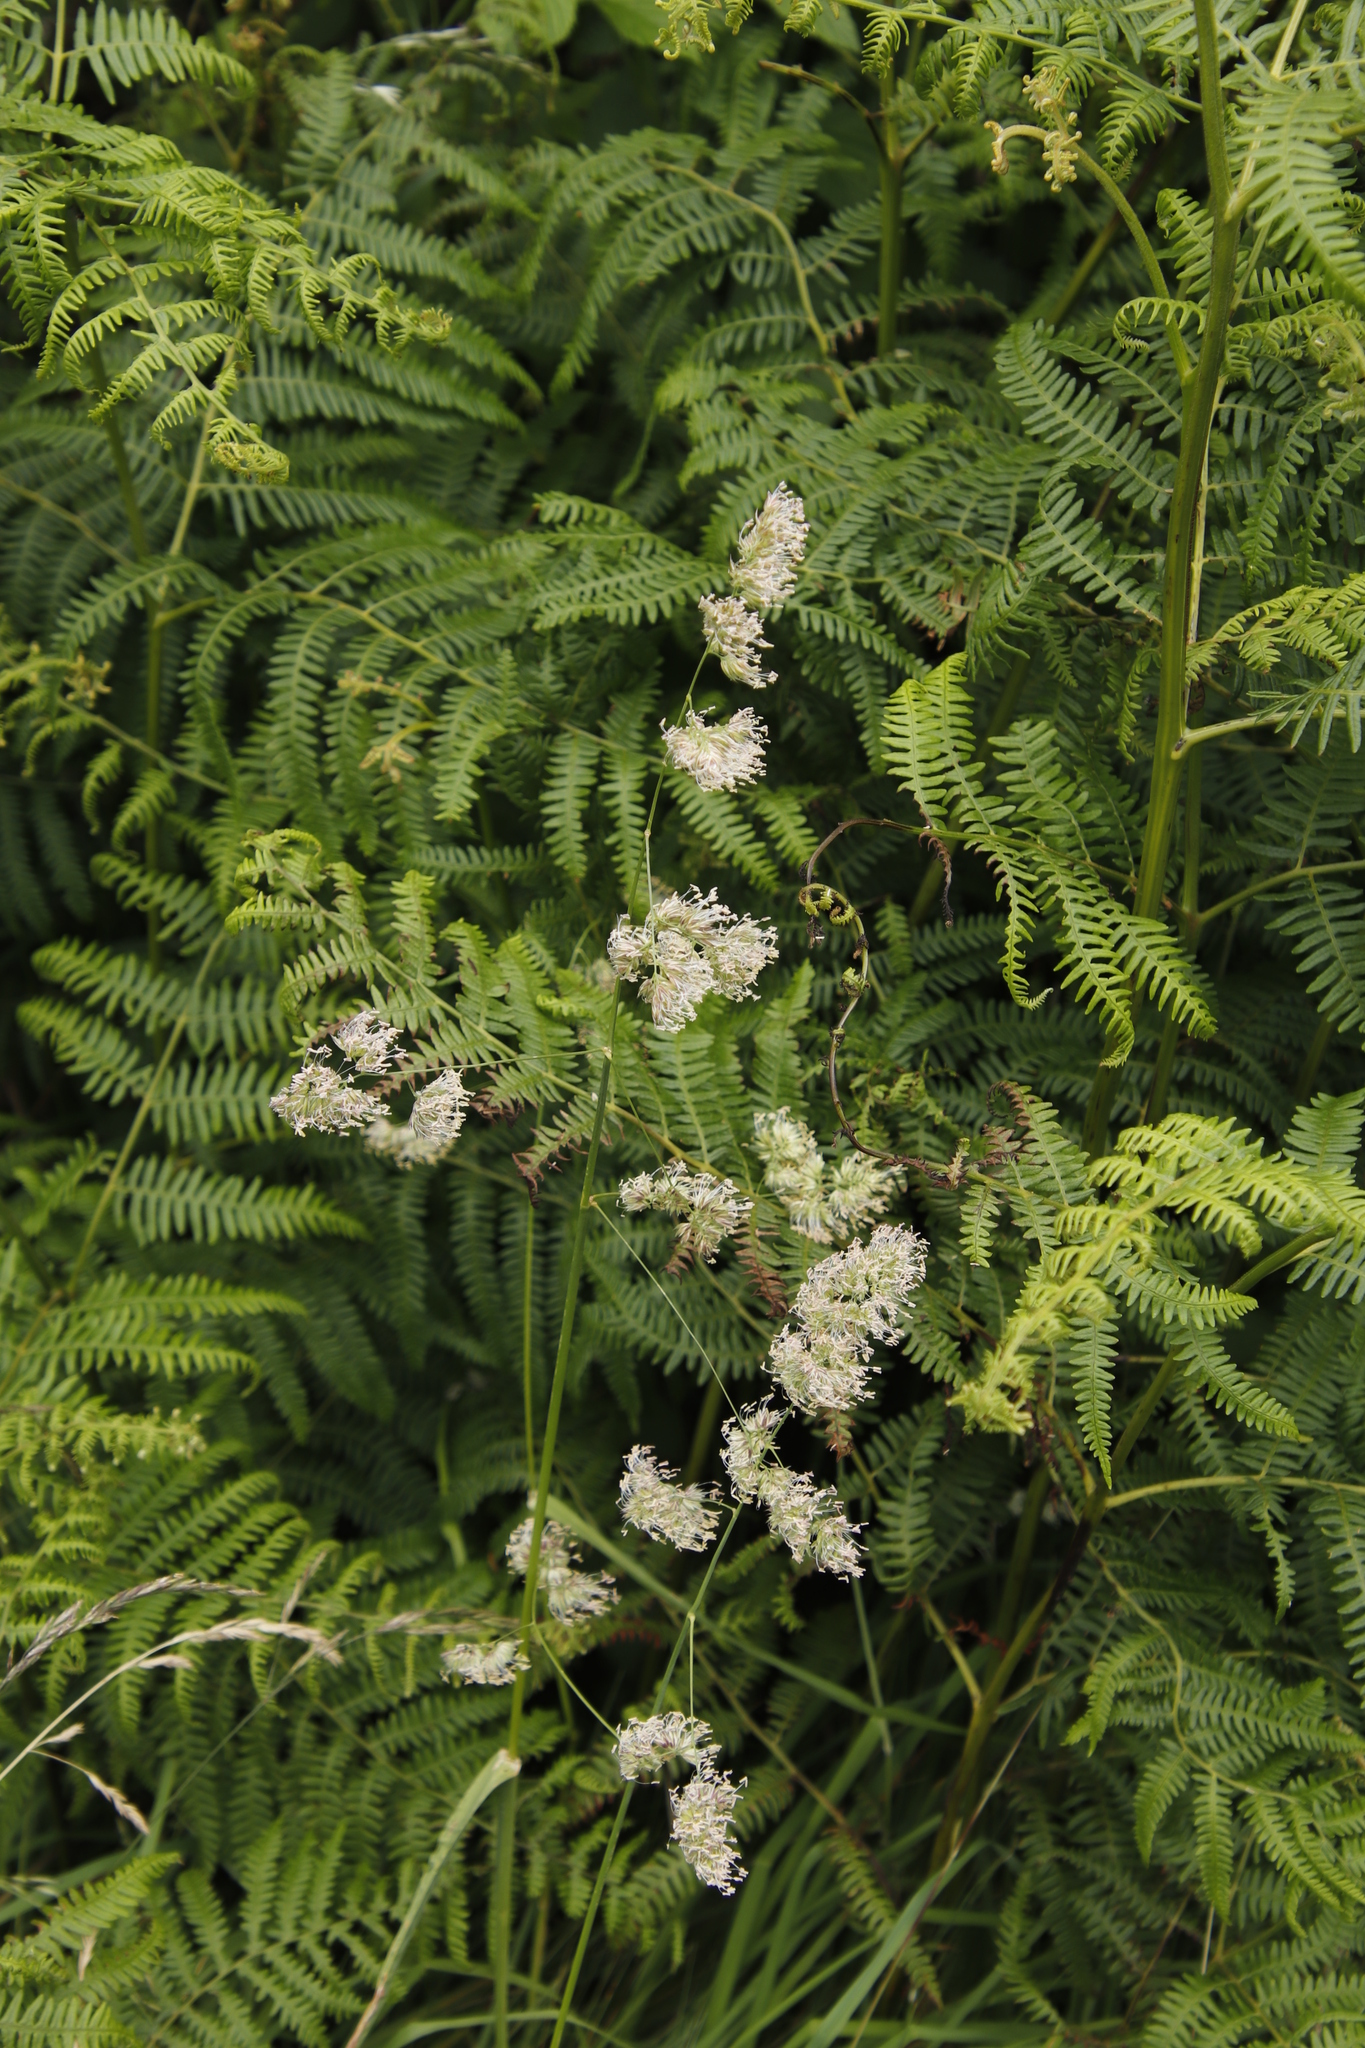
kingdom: Plantae
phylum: Tracheophyta
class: Liliopsida
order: Poales
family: Poaceae
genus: Dactylis
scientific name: Dactylis glomerata
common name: Orchardgrass
